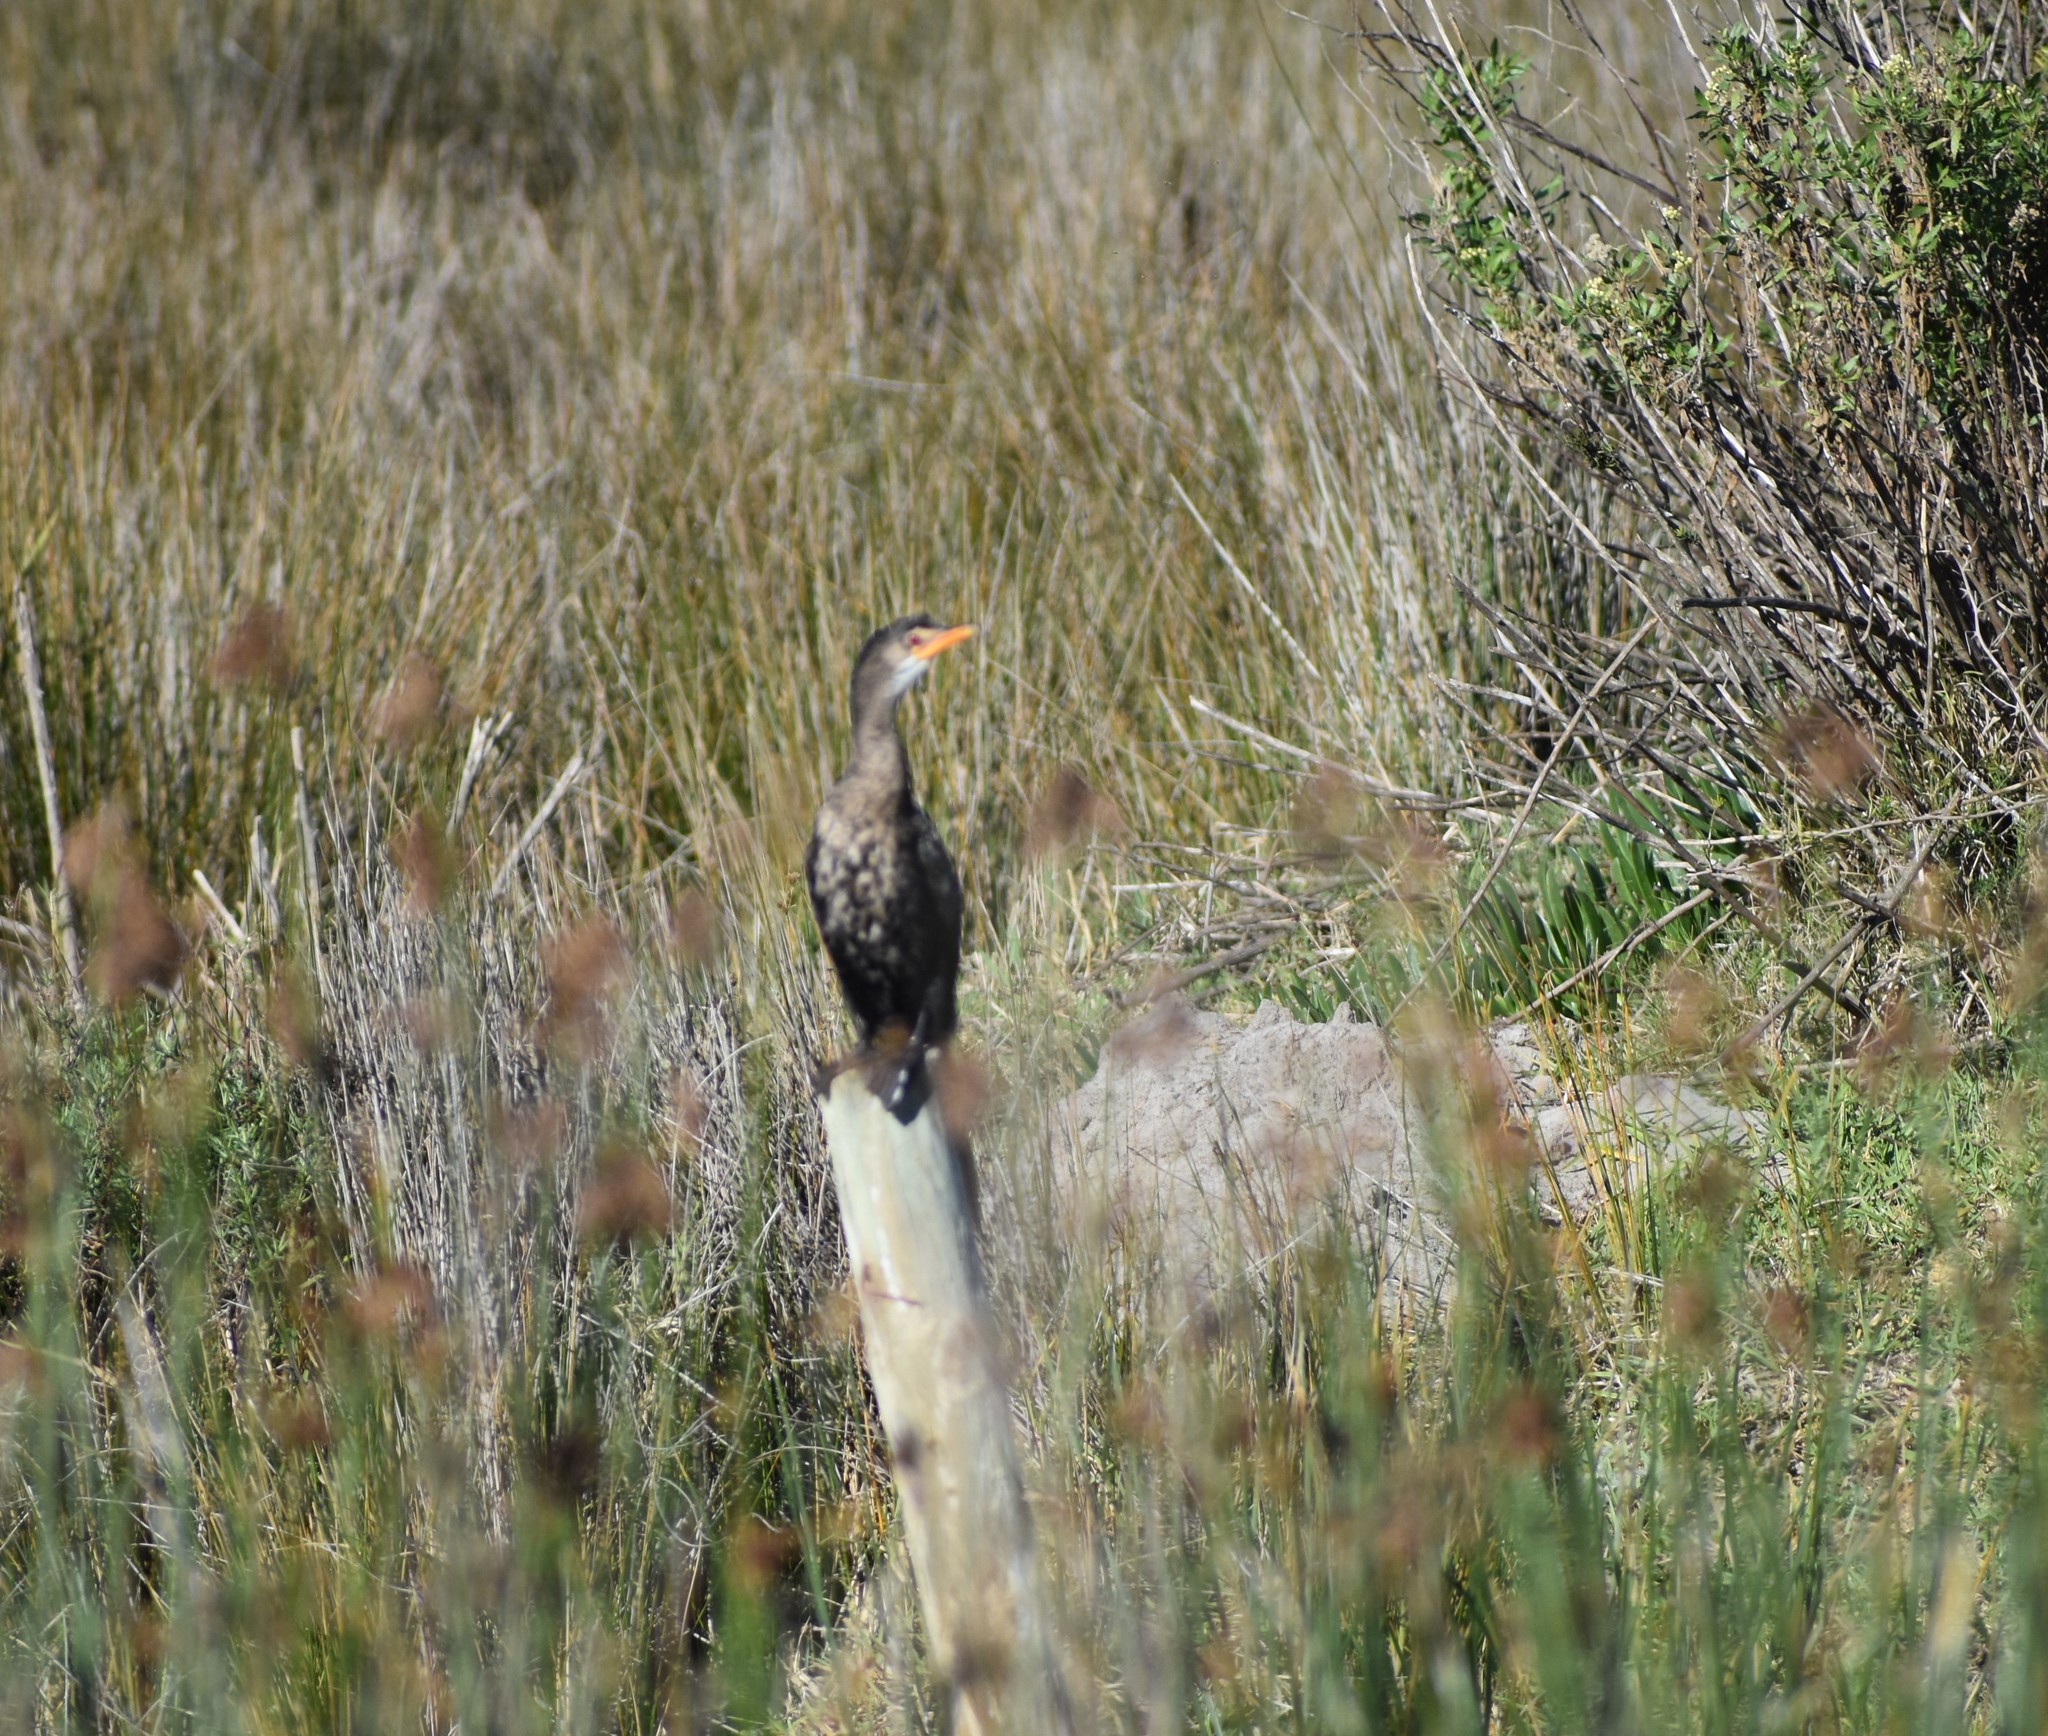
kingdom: Animalia
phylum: Chordata
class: Aves
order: Suliformes
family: Phalacrocoracidae
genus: Microcarbo
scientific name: Microcarbo africanus
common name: Long-tailed cormorant
